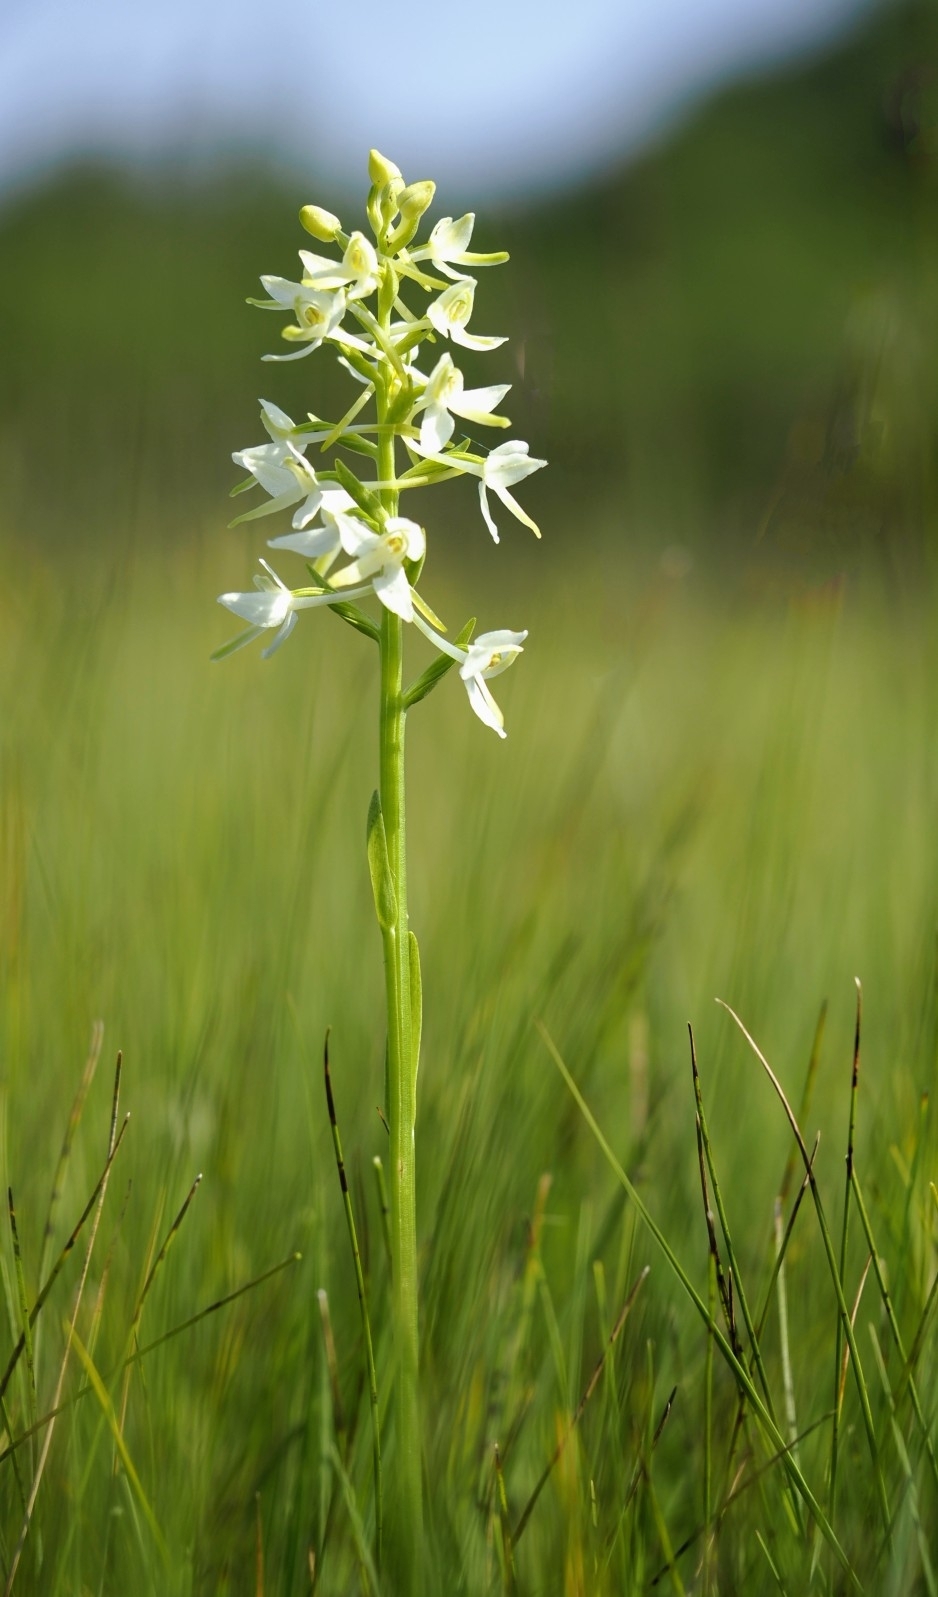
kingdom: Plantae
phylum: Tracheophyta
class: Liliopsida
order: Asparagales
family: Orchidaceae
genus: Platanthera
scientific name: Platanthera bifolia
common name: Lesser butterfly-orchid
